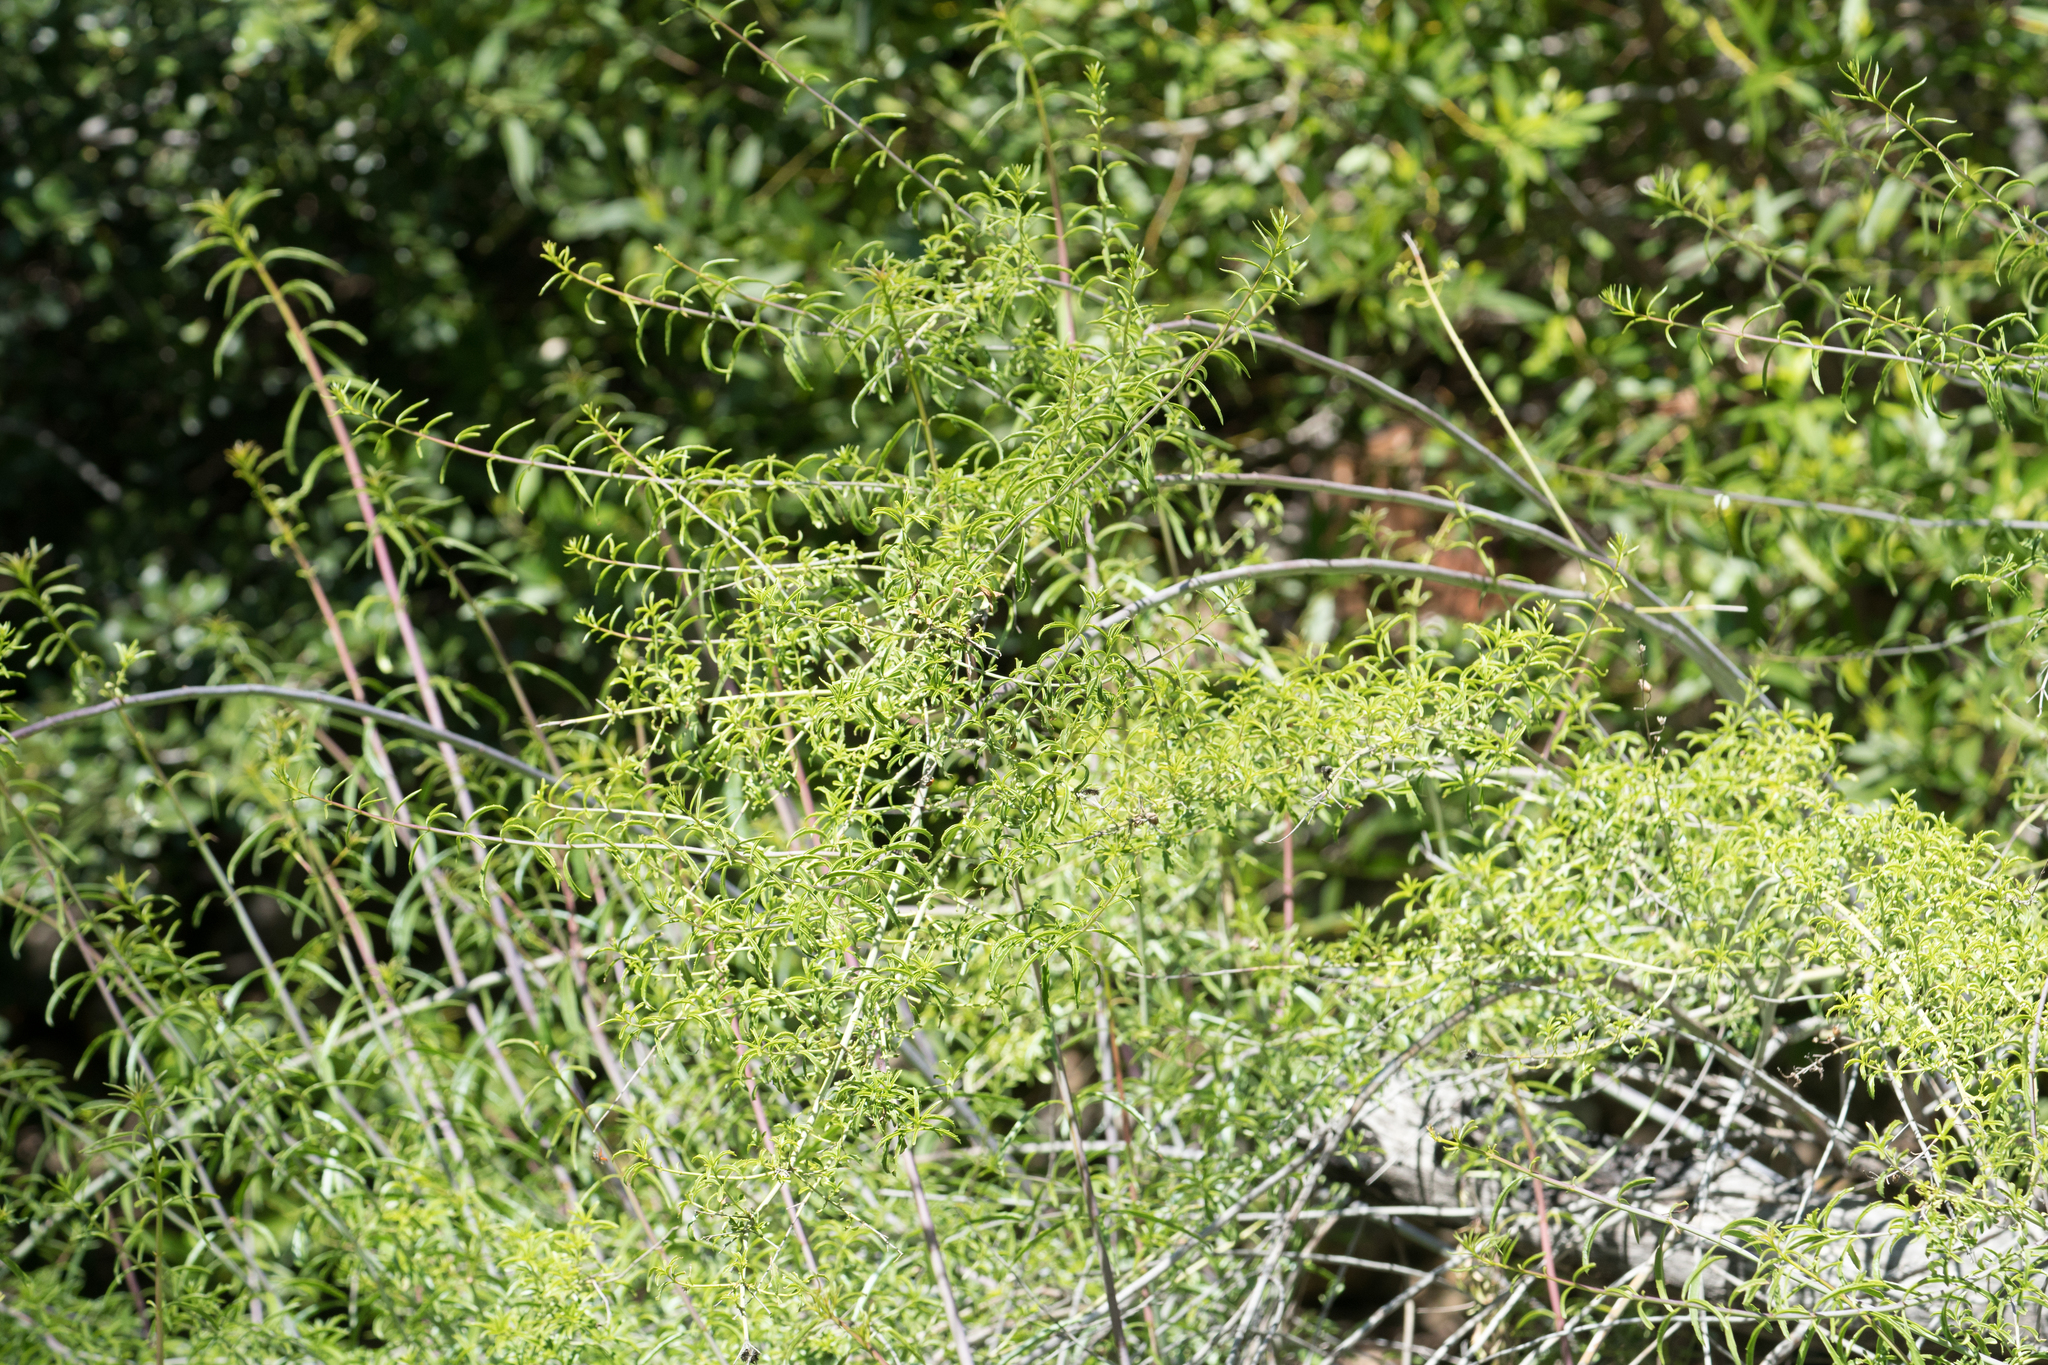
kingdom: Plantae
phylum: Tracheophyta
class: Magnoliopsida
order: Lamiales
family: Plantaginaceae
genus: Keckiella
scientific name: Keckiella ternata
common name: Scarlet keckiella
